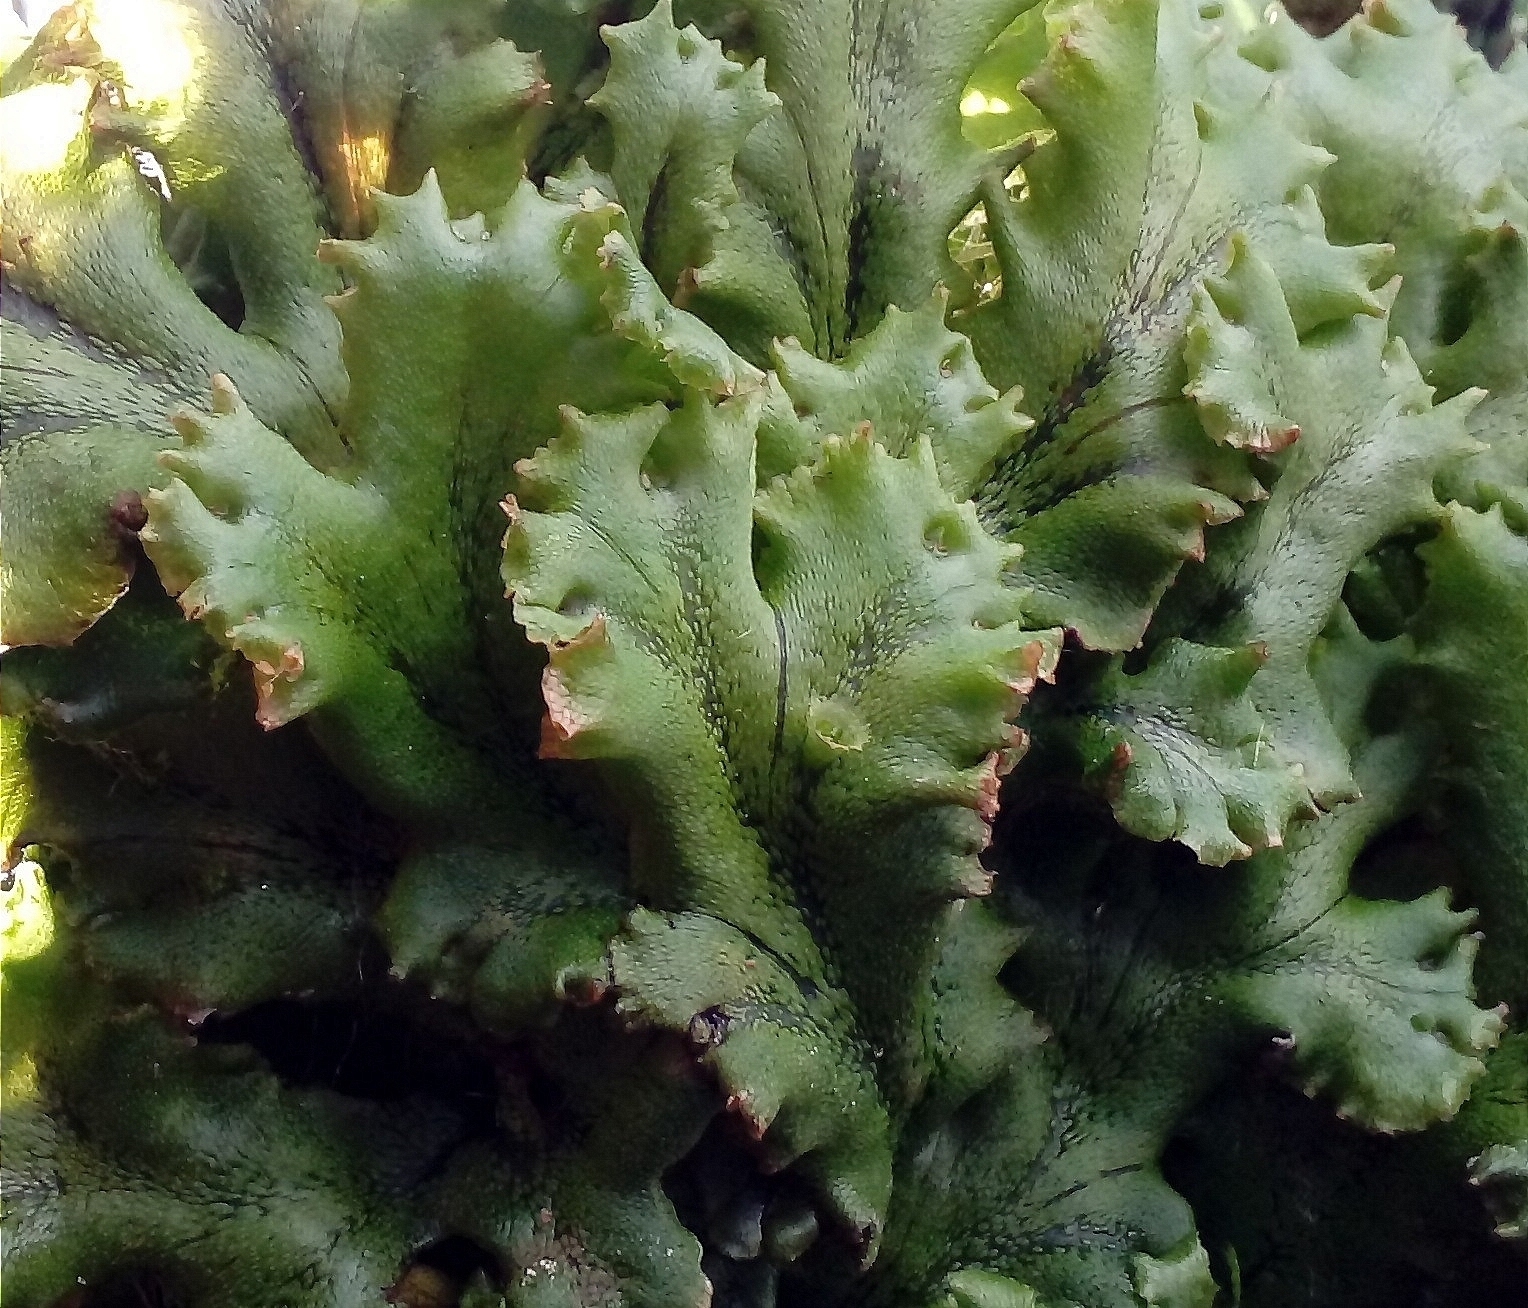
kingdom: Plantae
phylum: Marchantiophyta
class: Marchantiopsida
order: Marchantiales
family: Marchantiaceae
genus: Marchantia
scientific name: Marchantia polymorpha
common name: Common liverwort
